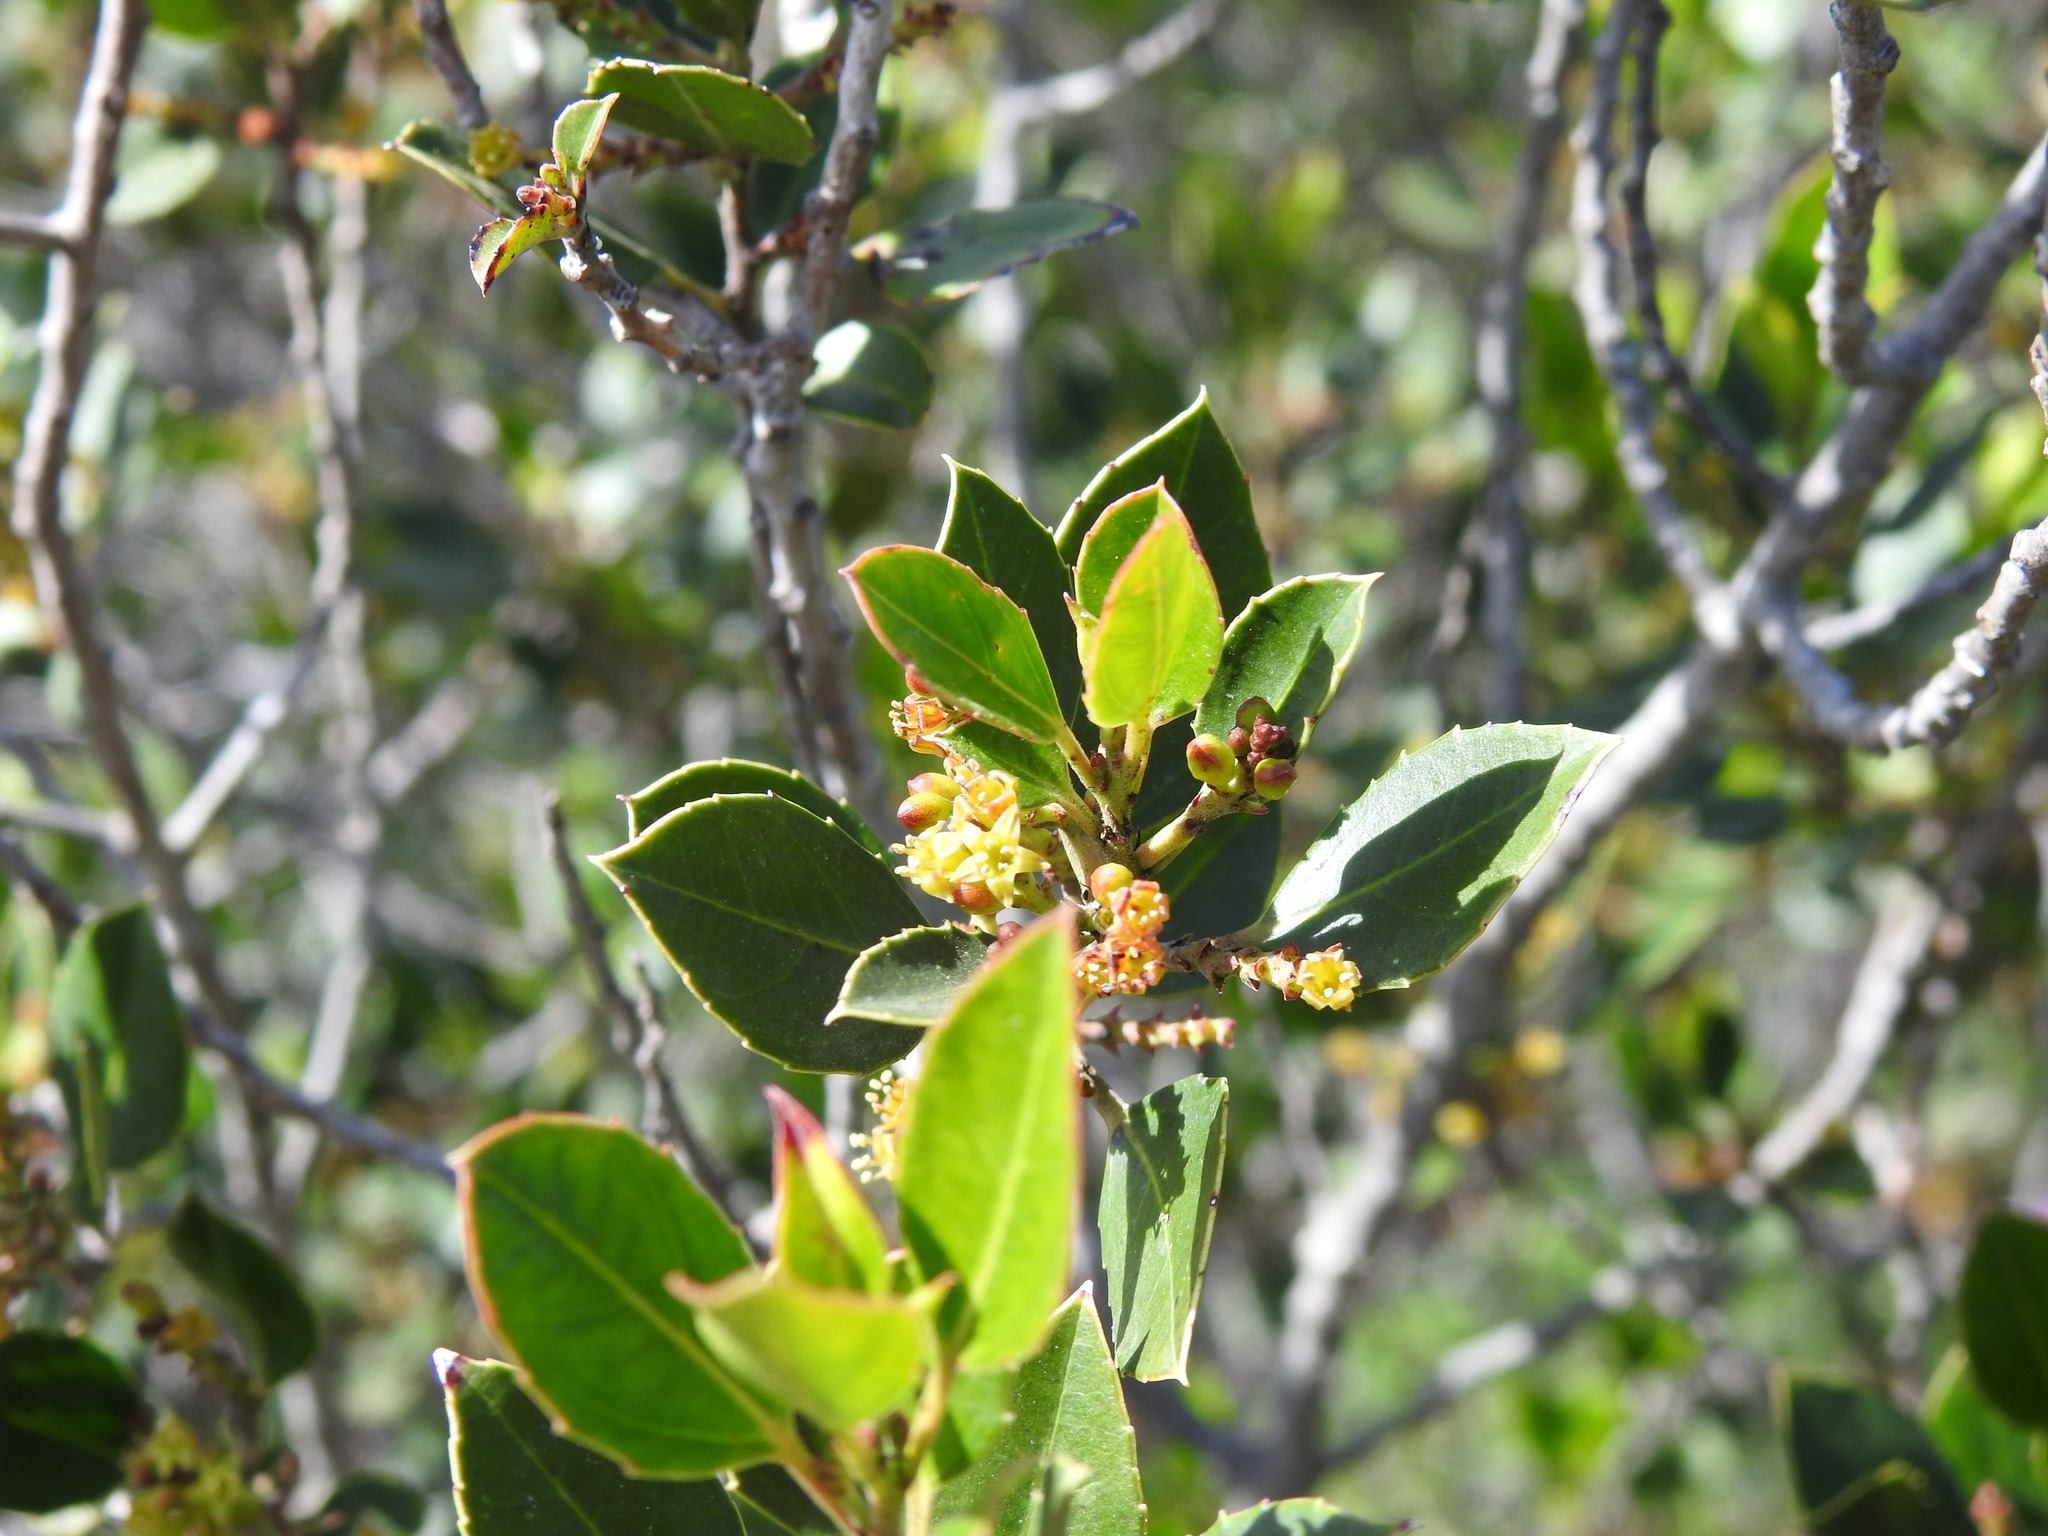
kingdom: Plantae
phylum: Tracheophyta
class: Magnoliopsida
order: Rosales
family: Rhamnaceae
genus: Rhamnus
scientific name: Rhamnus alaternus
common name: Mediterranean buckthorn
